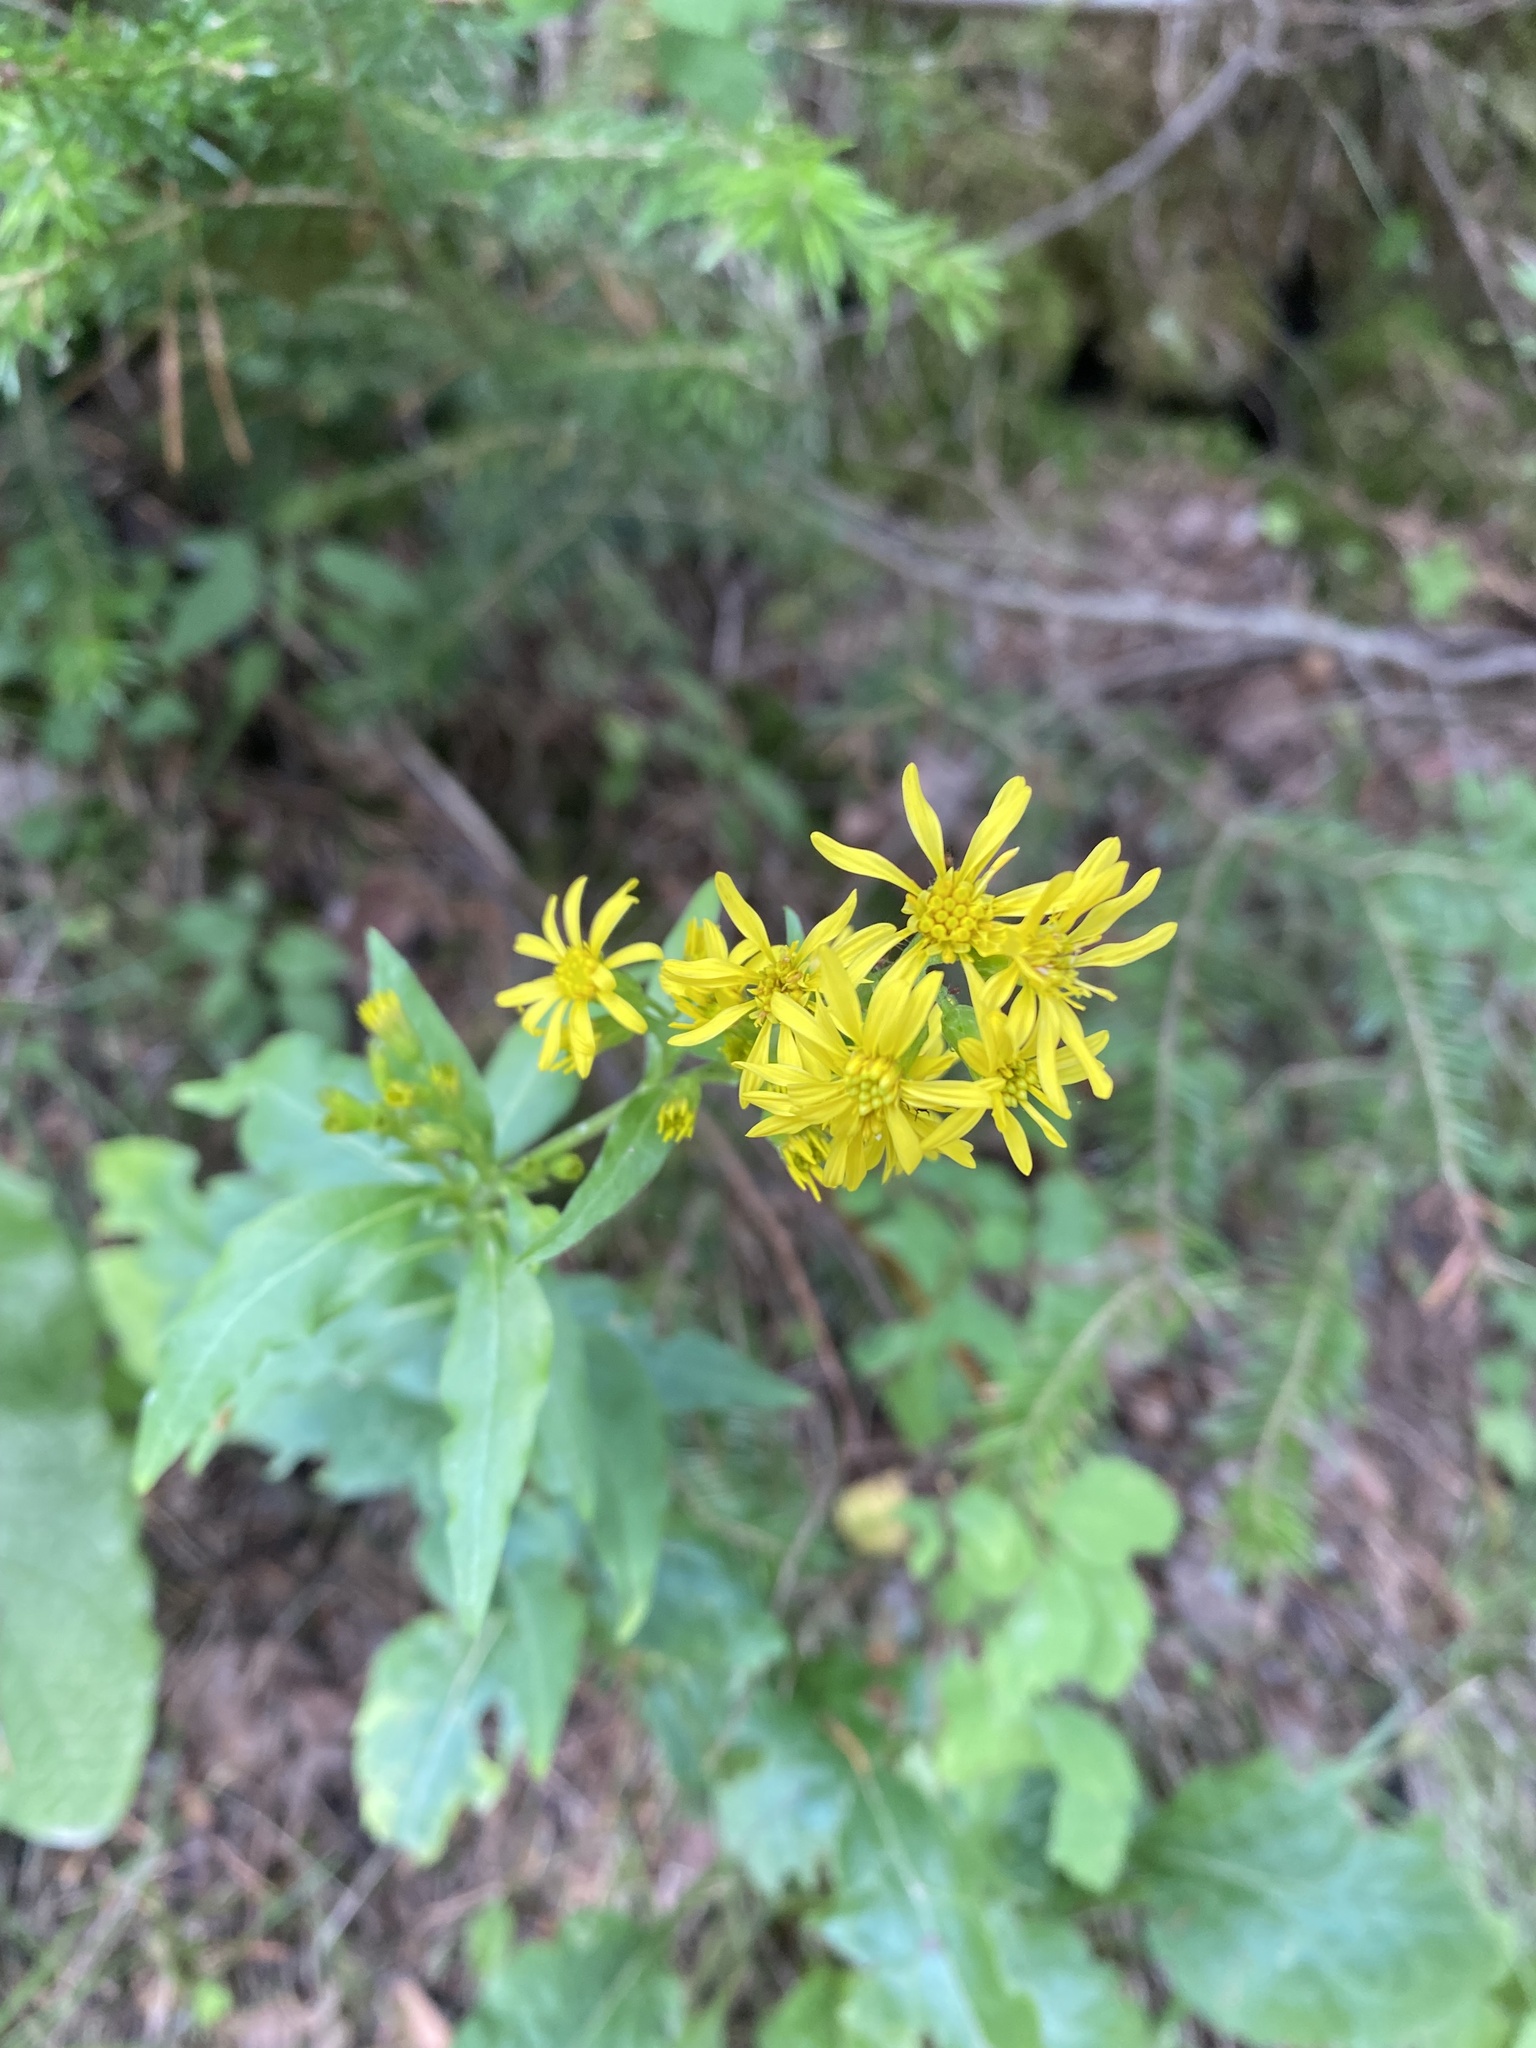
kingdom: Plantae
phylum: Tracheophyta
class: Magnoliopsida
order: Asterales
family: Asteraceae
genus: Solidago
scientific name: Solidago virgaurea
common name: Goldenrod
